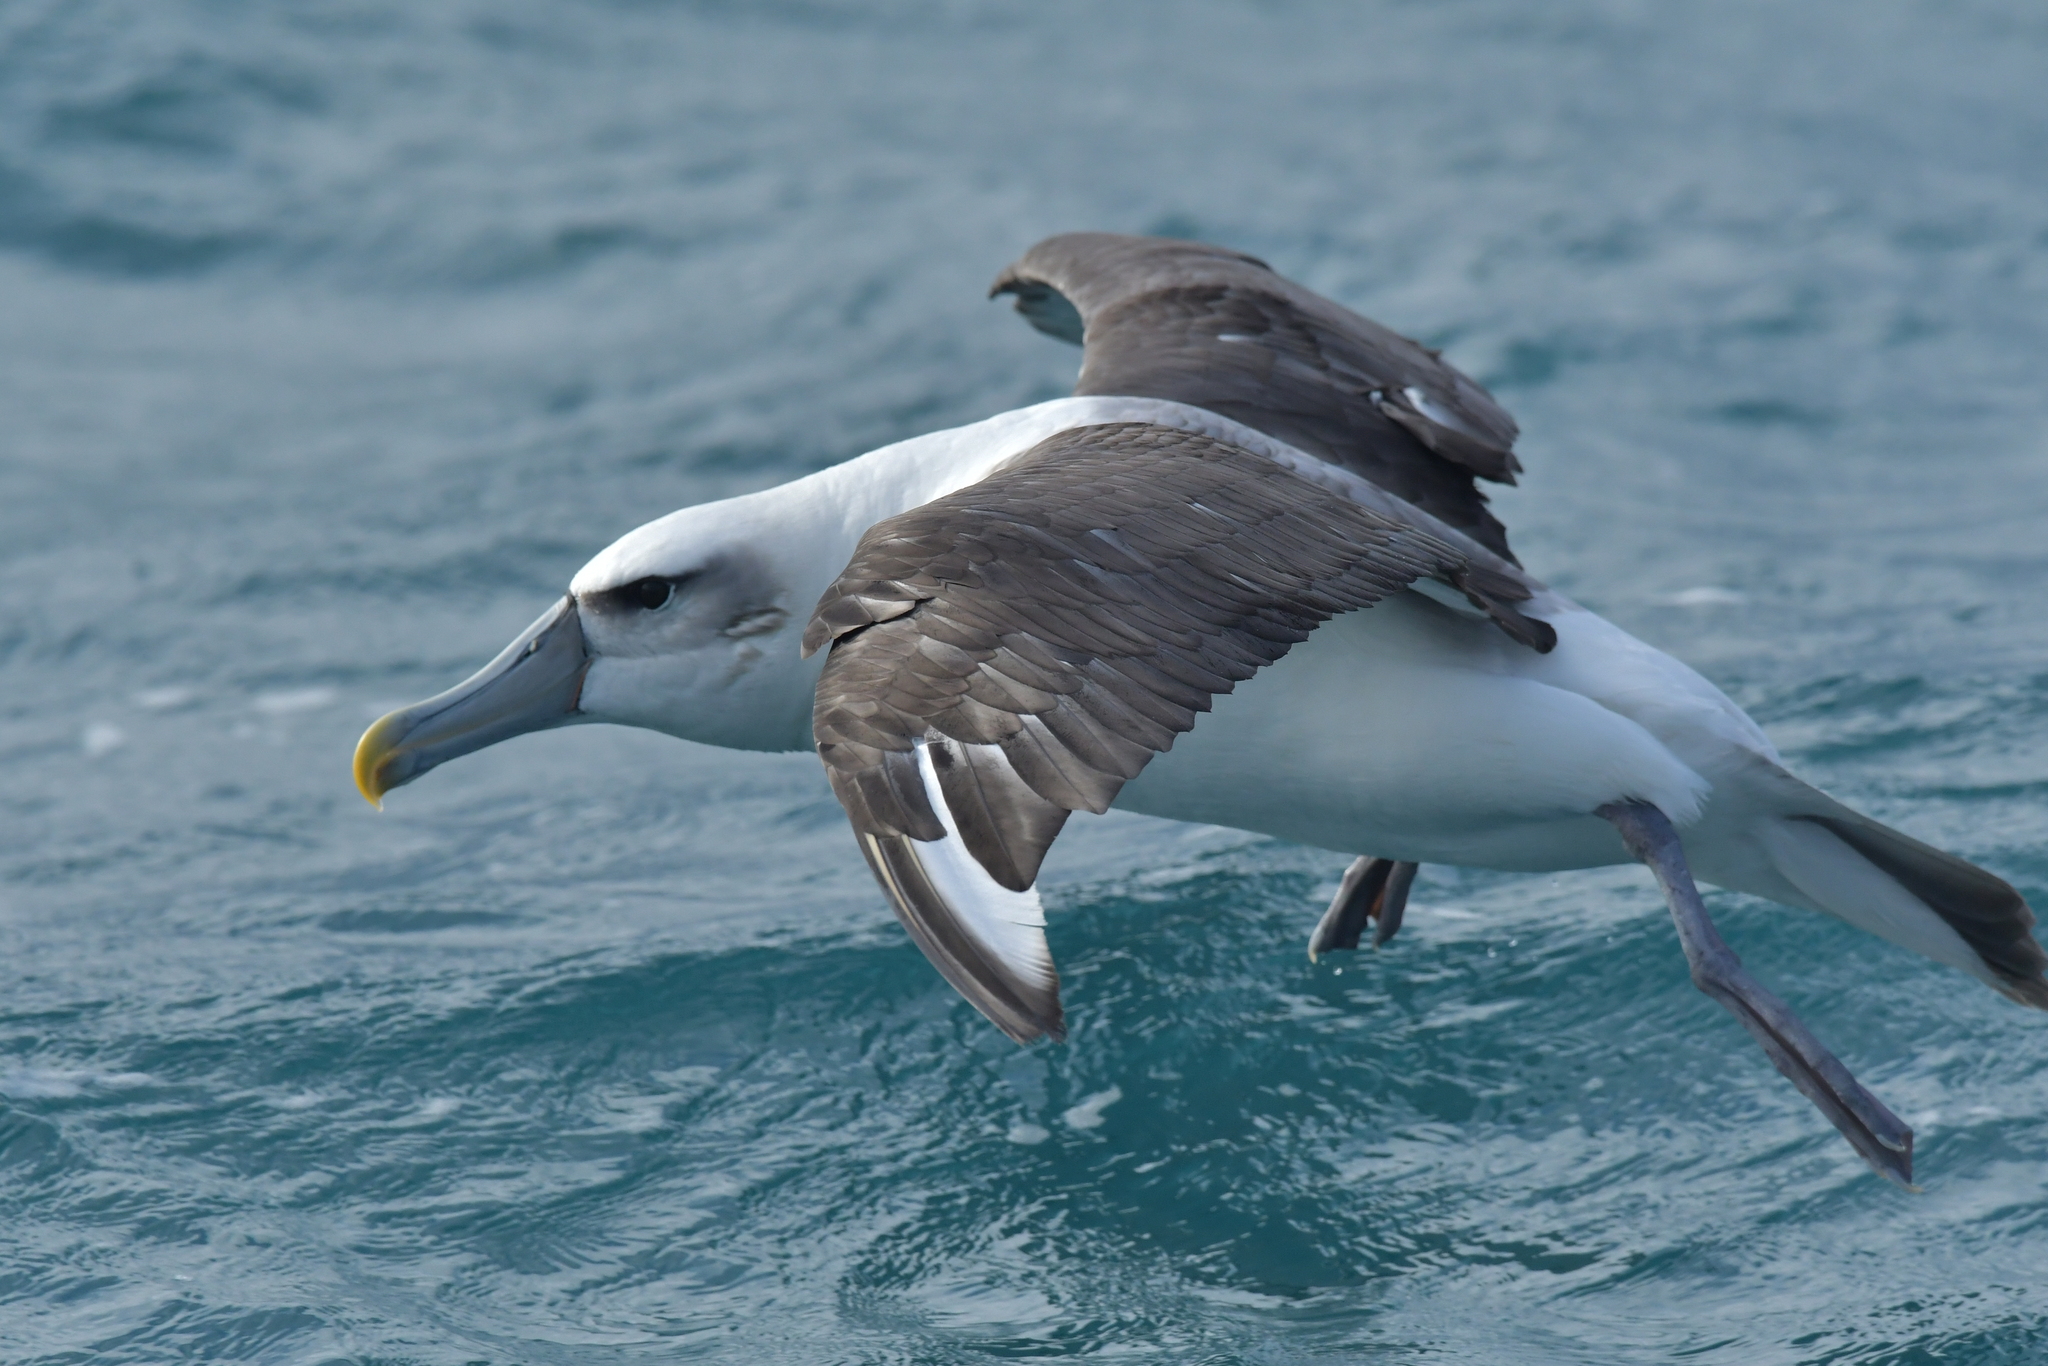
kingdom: Animalia
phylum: Chordata
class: Aves
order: Procellariiformes
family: Diomedeidae
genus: Thalassarche
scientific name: Thalassarche cauta
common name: Shy albatross
